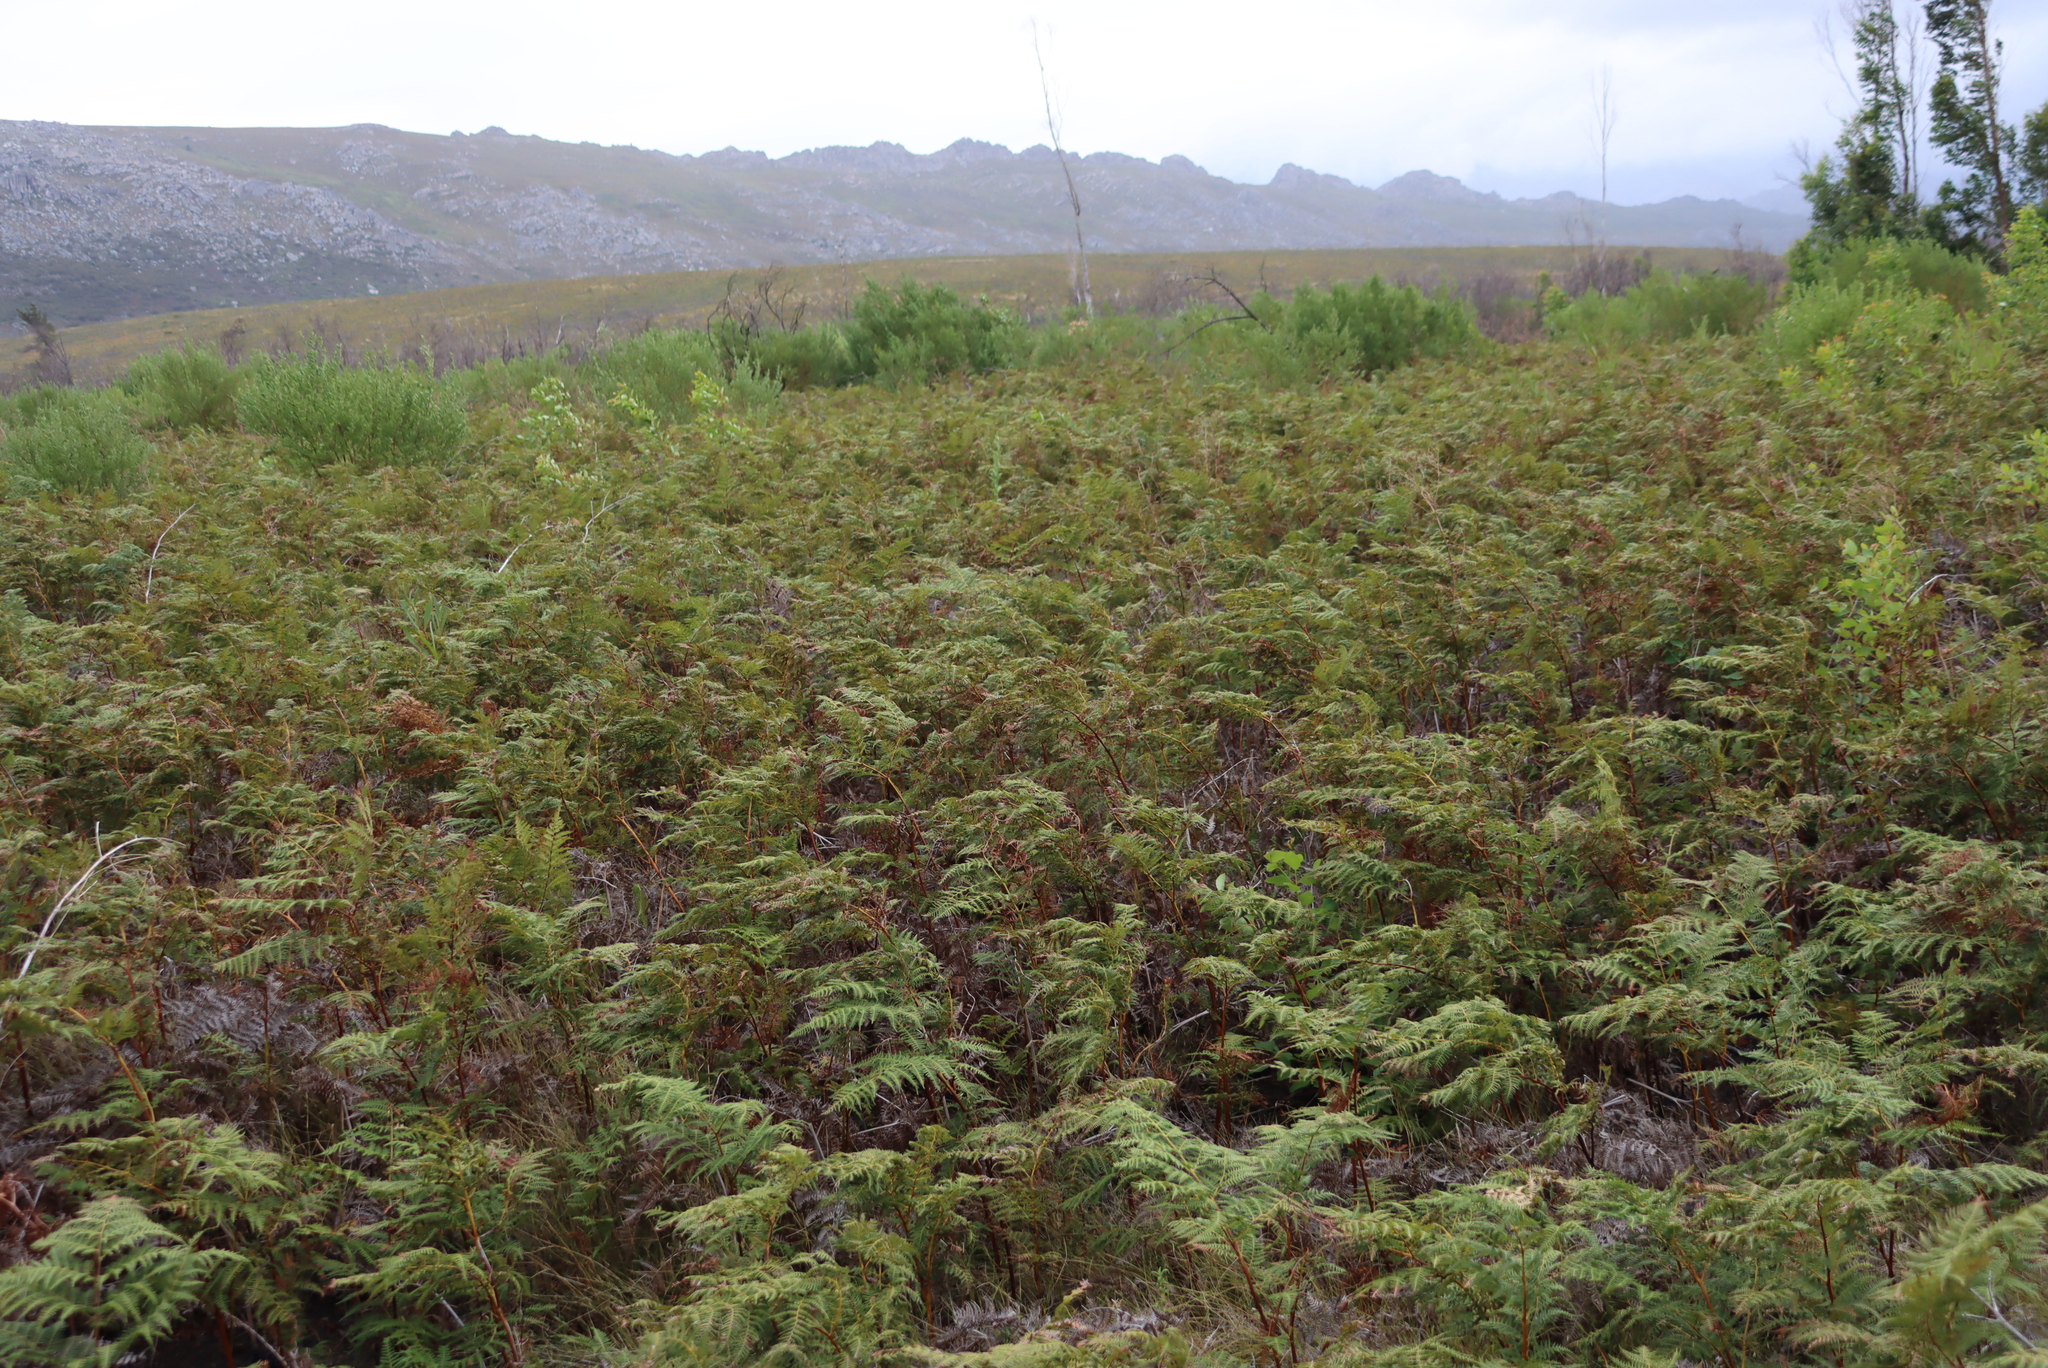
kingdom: Plantae
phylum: Tracheophyta
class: Polypodiopsida
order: Polypodiales
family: Dennstaedtiaceae
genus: Pteridium
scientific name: Pteridium aquilinum
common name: Bracken
